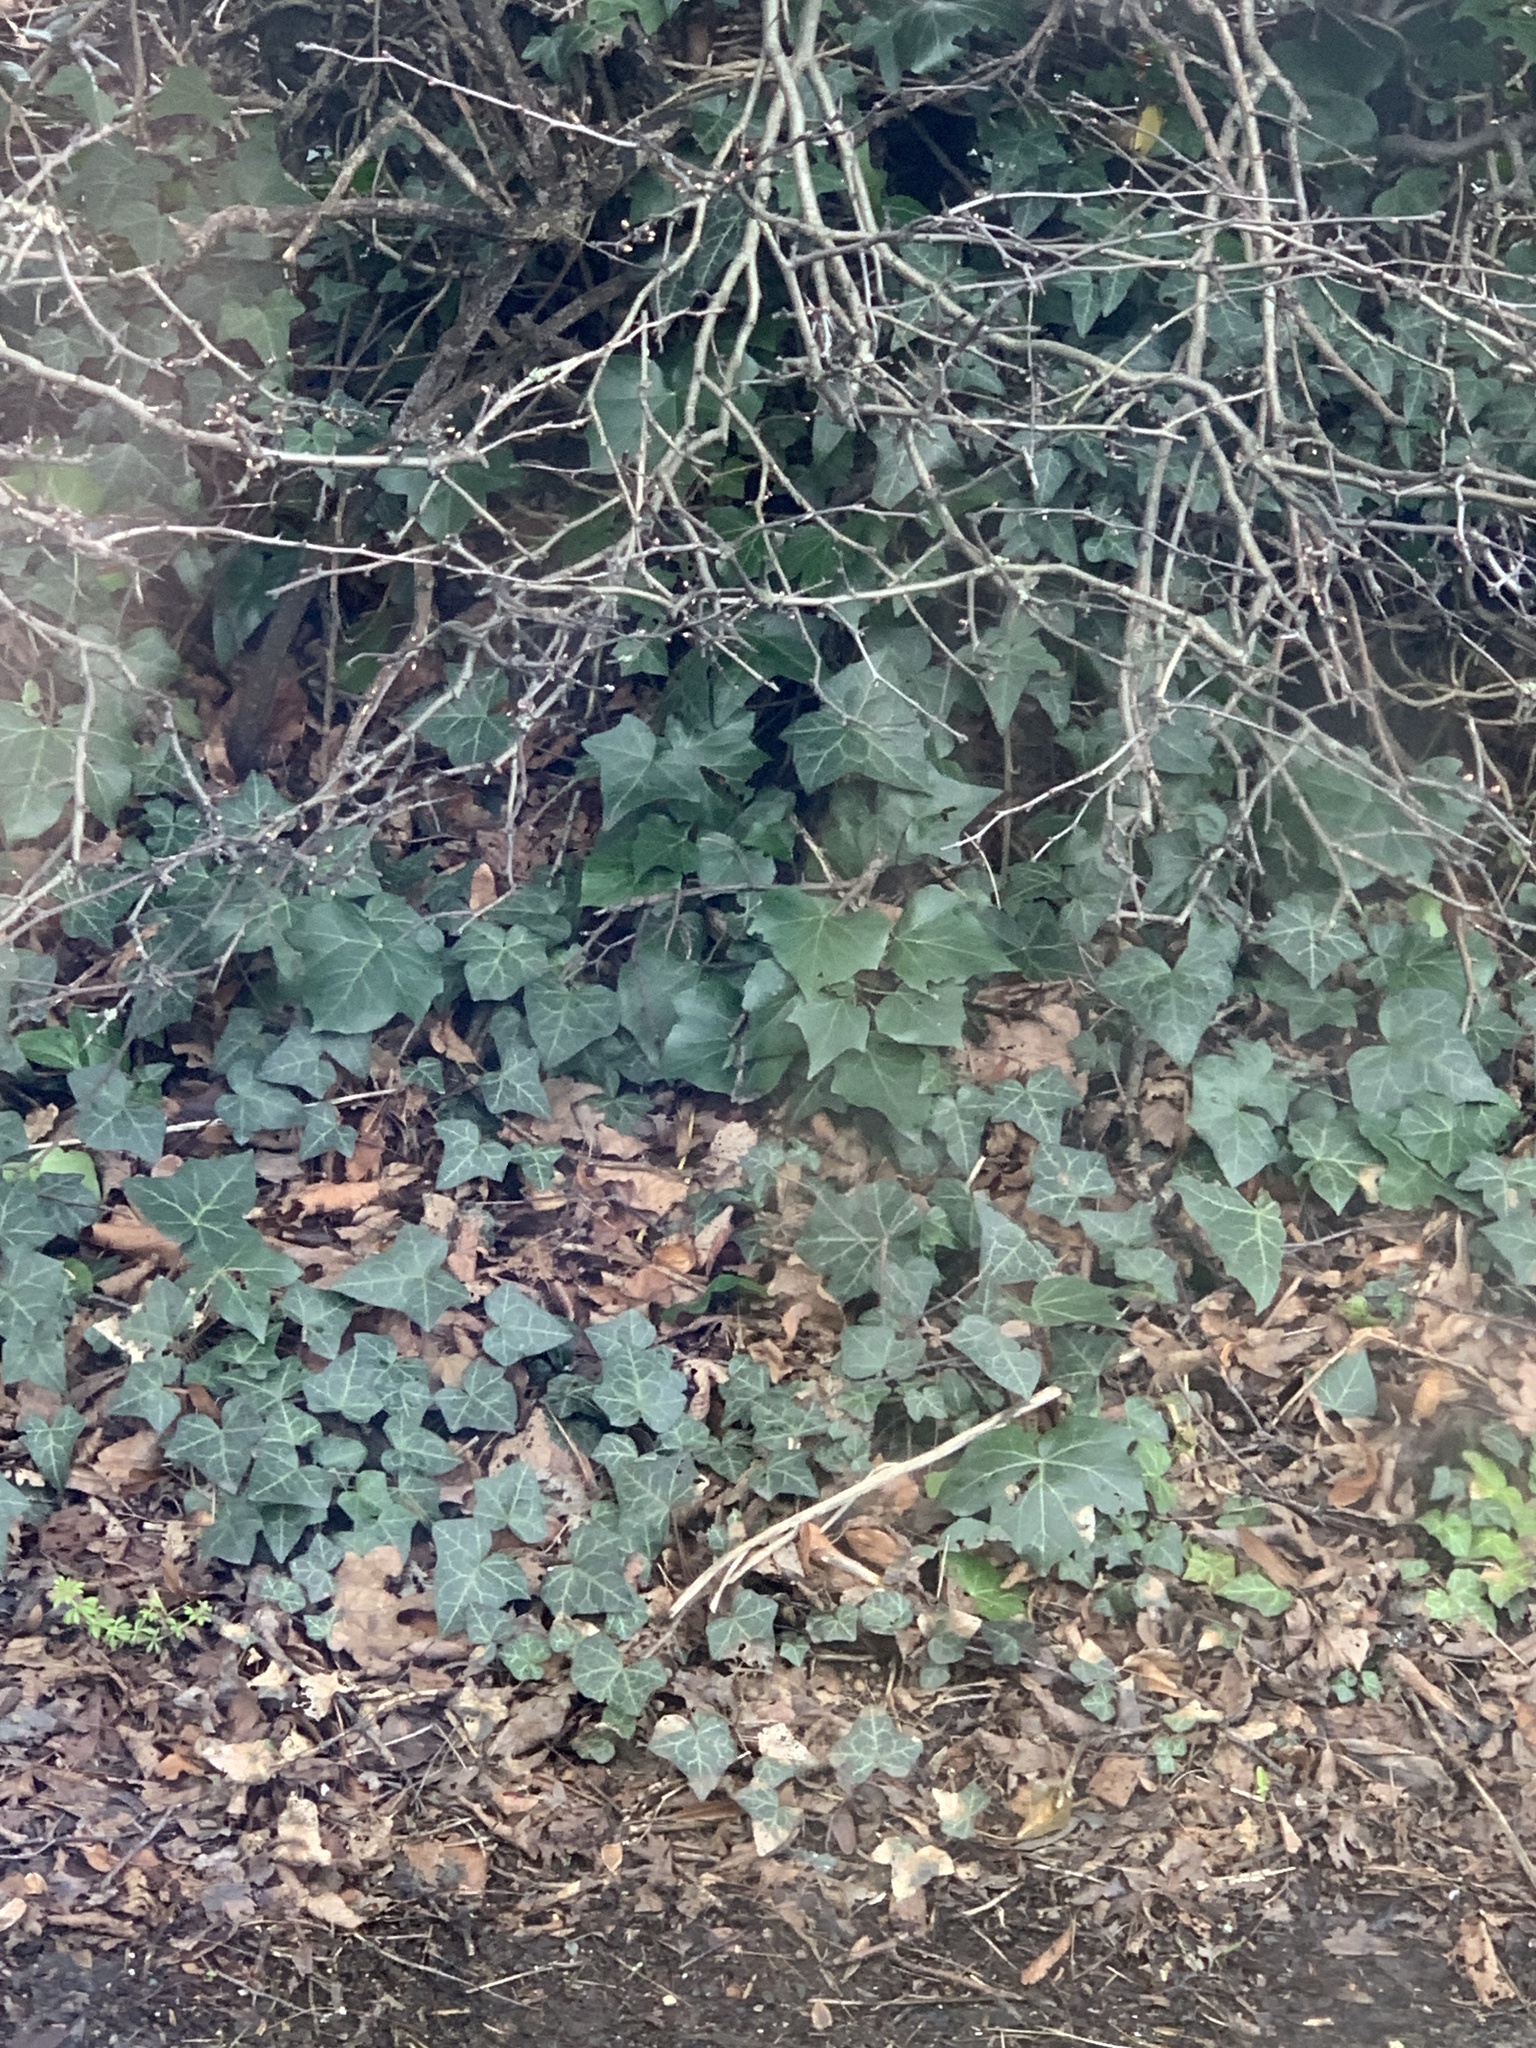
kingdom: Plantae
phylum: Tracheophyta
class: Magnoliopsida
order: Apiales
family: Araliaceae
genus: Hedera
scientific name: Hedera helix
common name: Ivy
